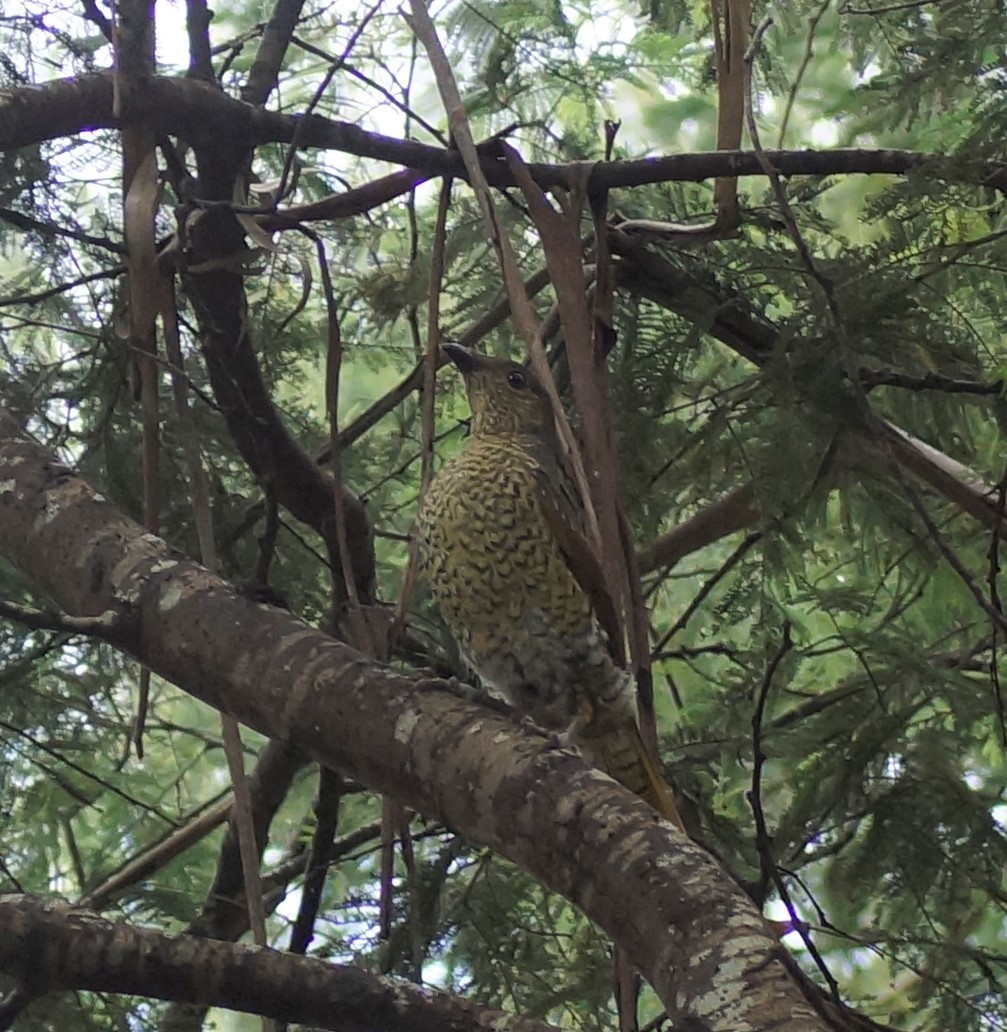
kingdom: Animalia
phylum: Chordata
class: Aves
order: Passeriformes
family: Ptilonorhynchidae
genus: Ptilonorhynchus
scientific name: Ptilonorhynchus violaceus
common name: Satin bowerbird
